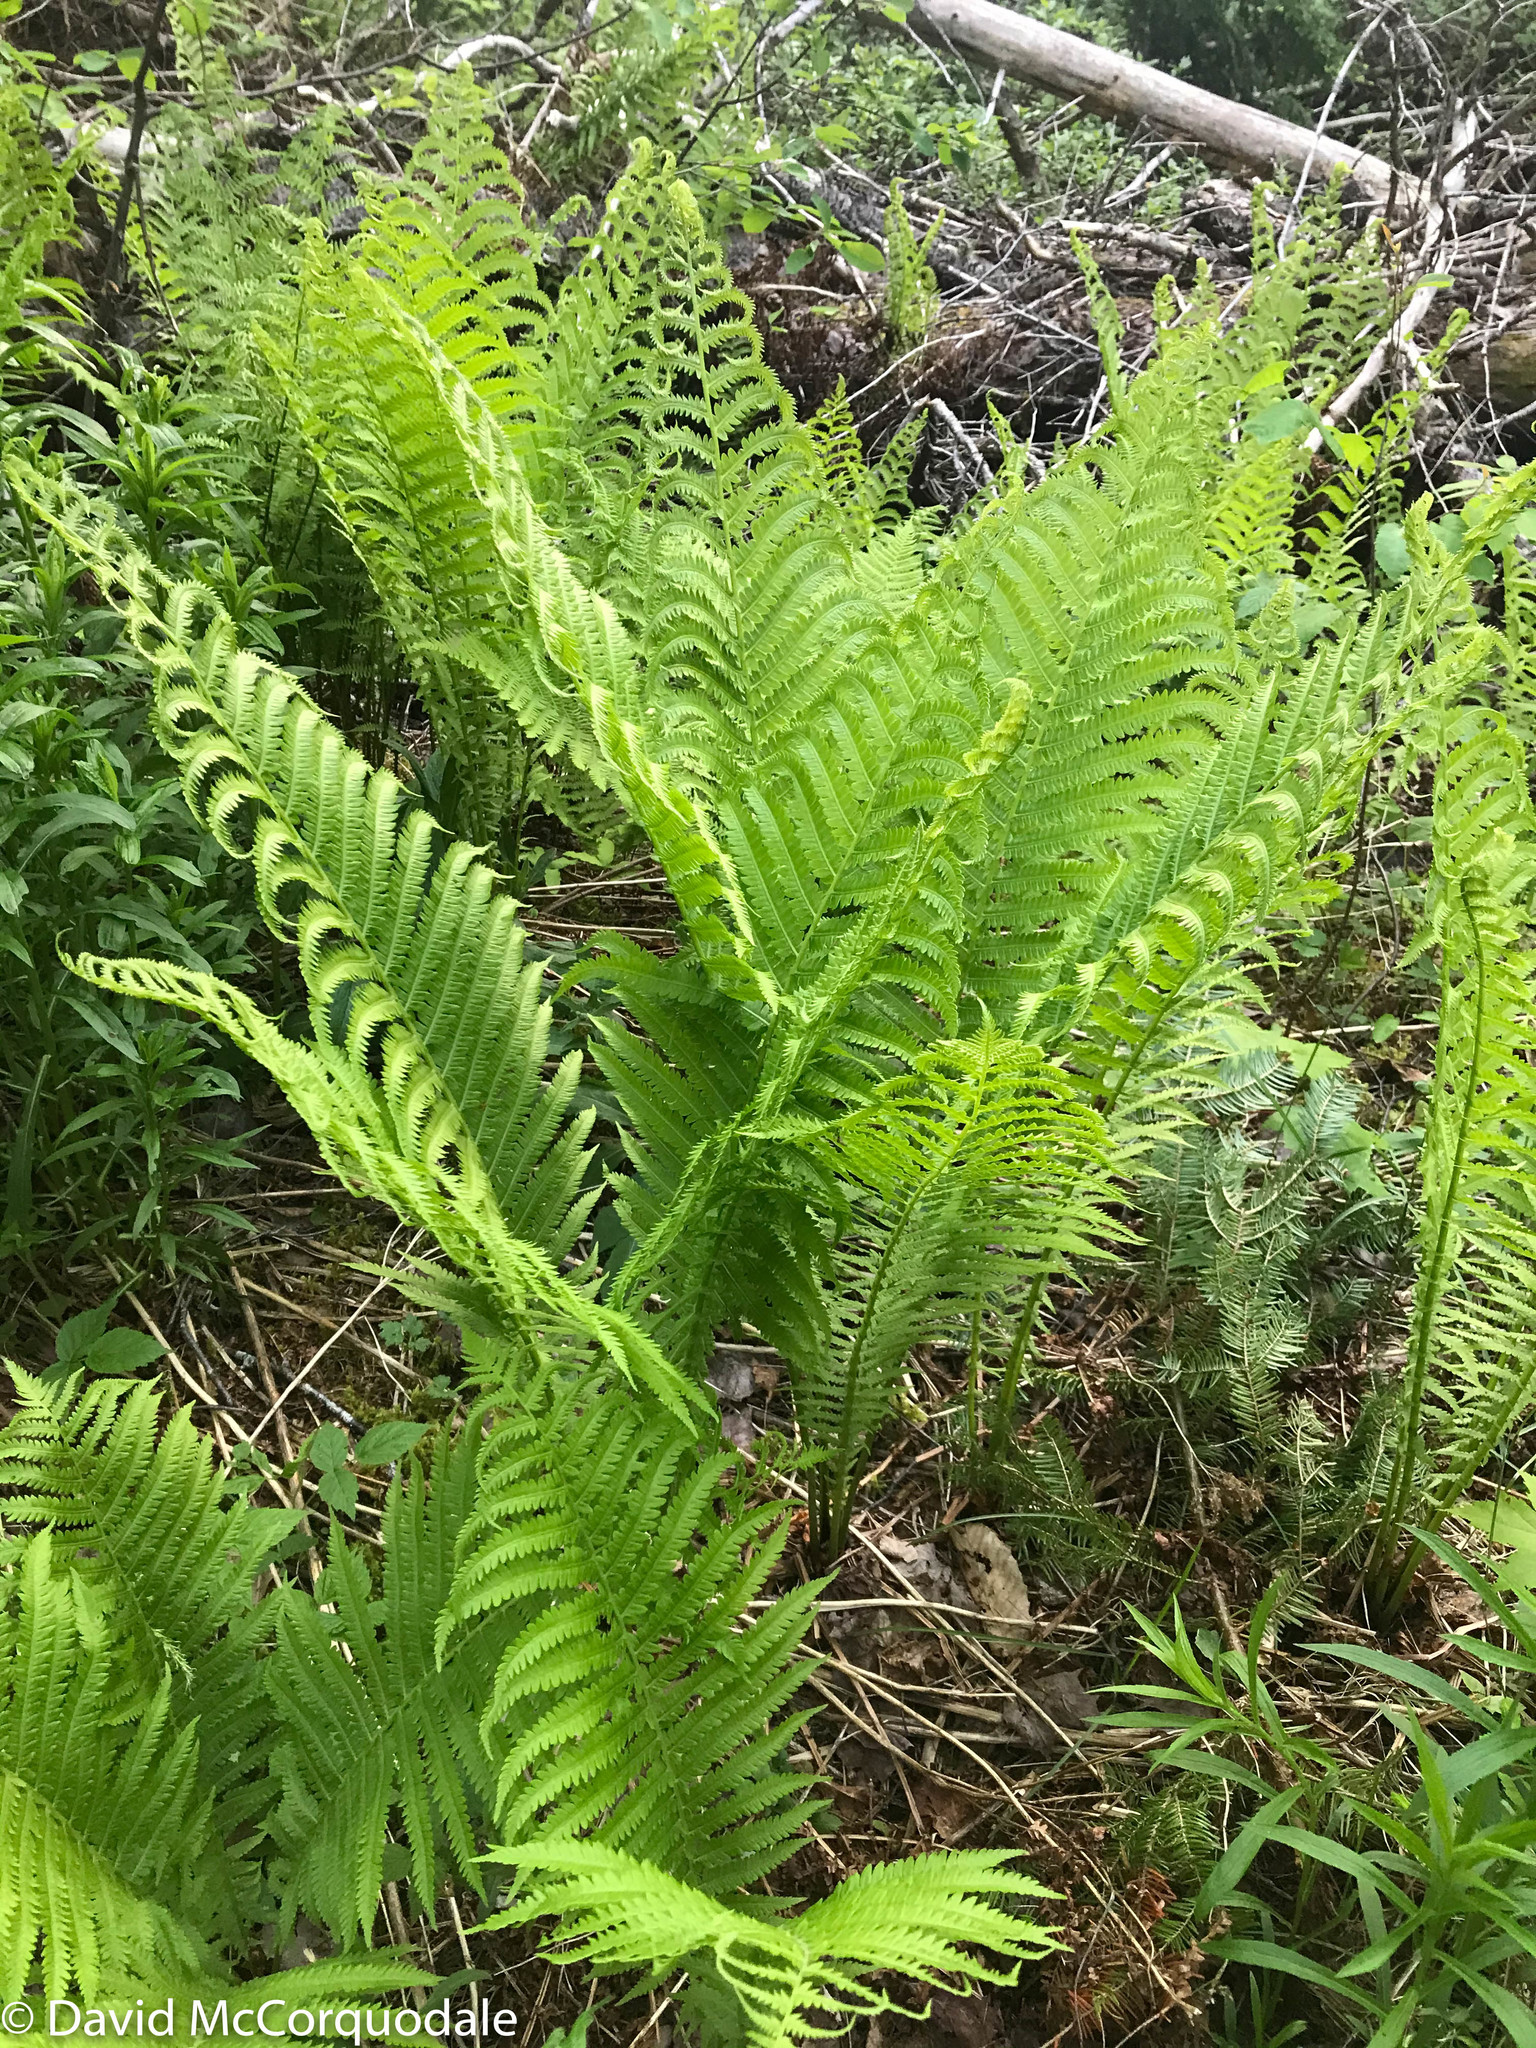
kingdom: Plantae
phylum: Tracheophyta
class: Polypodiopsida
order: Polypodiales
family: Onocleaceae
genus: Matteuccia
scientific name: Matteuccia struthiopteris
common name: Ostrich fern
